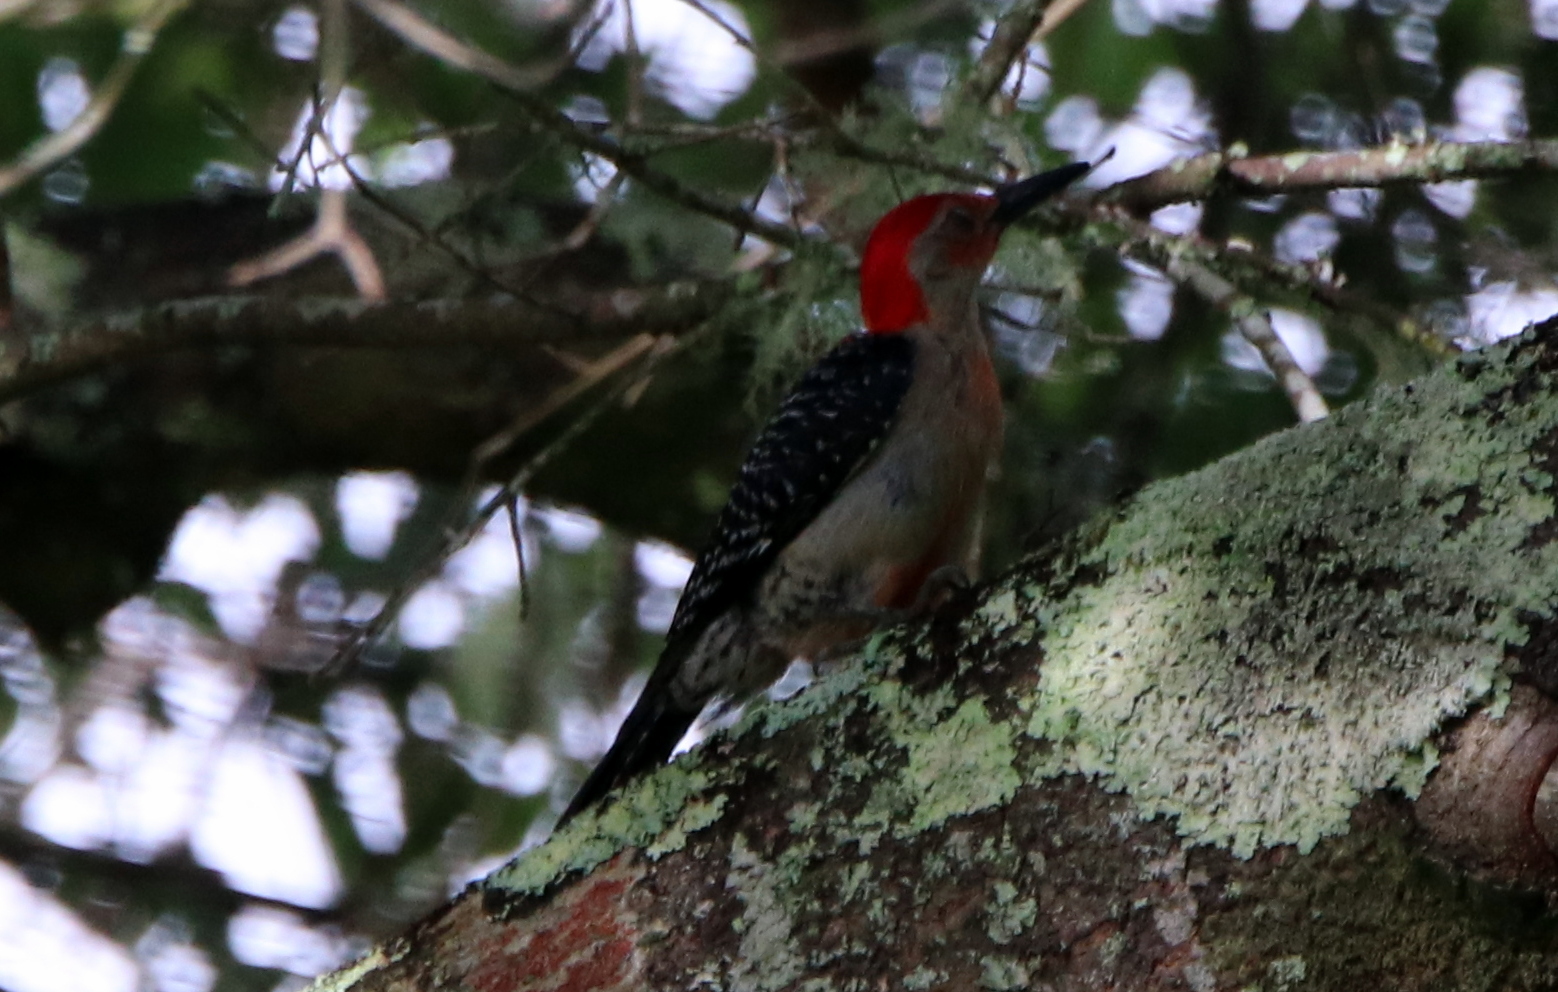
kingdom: Animalia
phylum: Chordata
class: Aves
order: Piciformes
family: Picidae
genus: Melanerpes
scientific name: Melanerpes carolinus
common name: Red-bellied woodpecker
